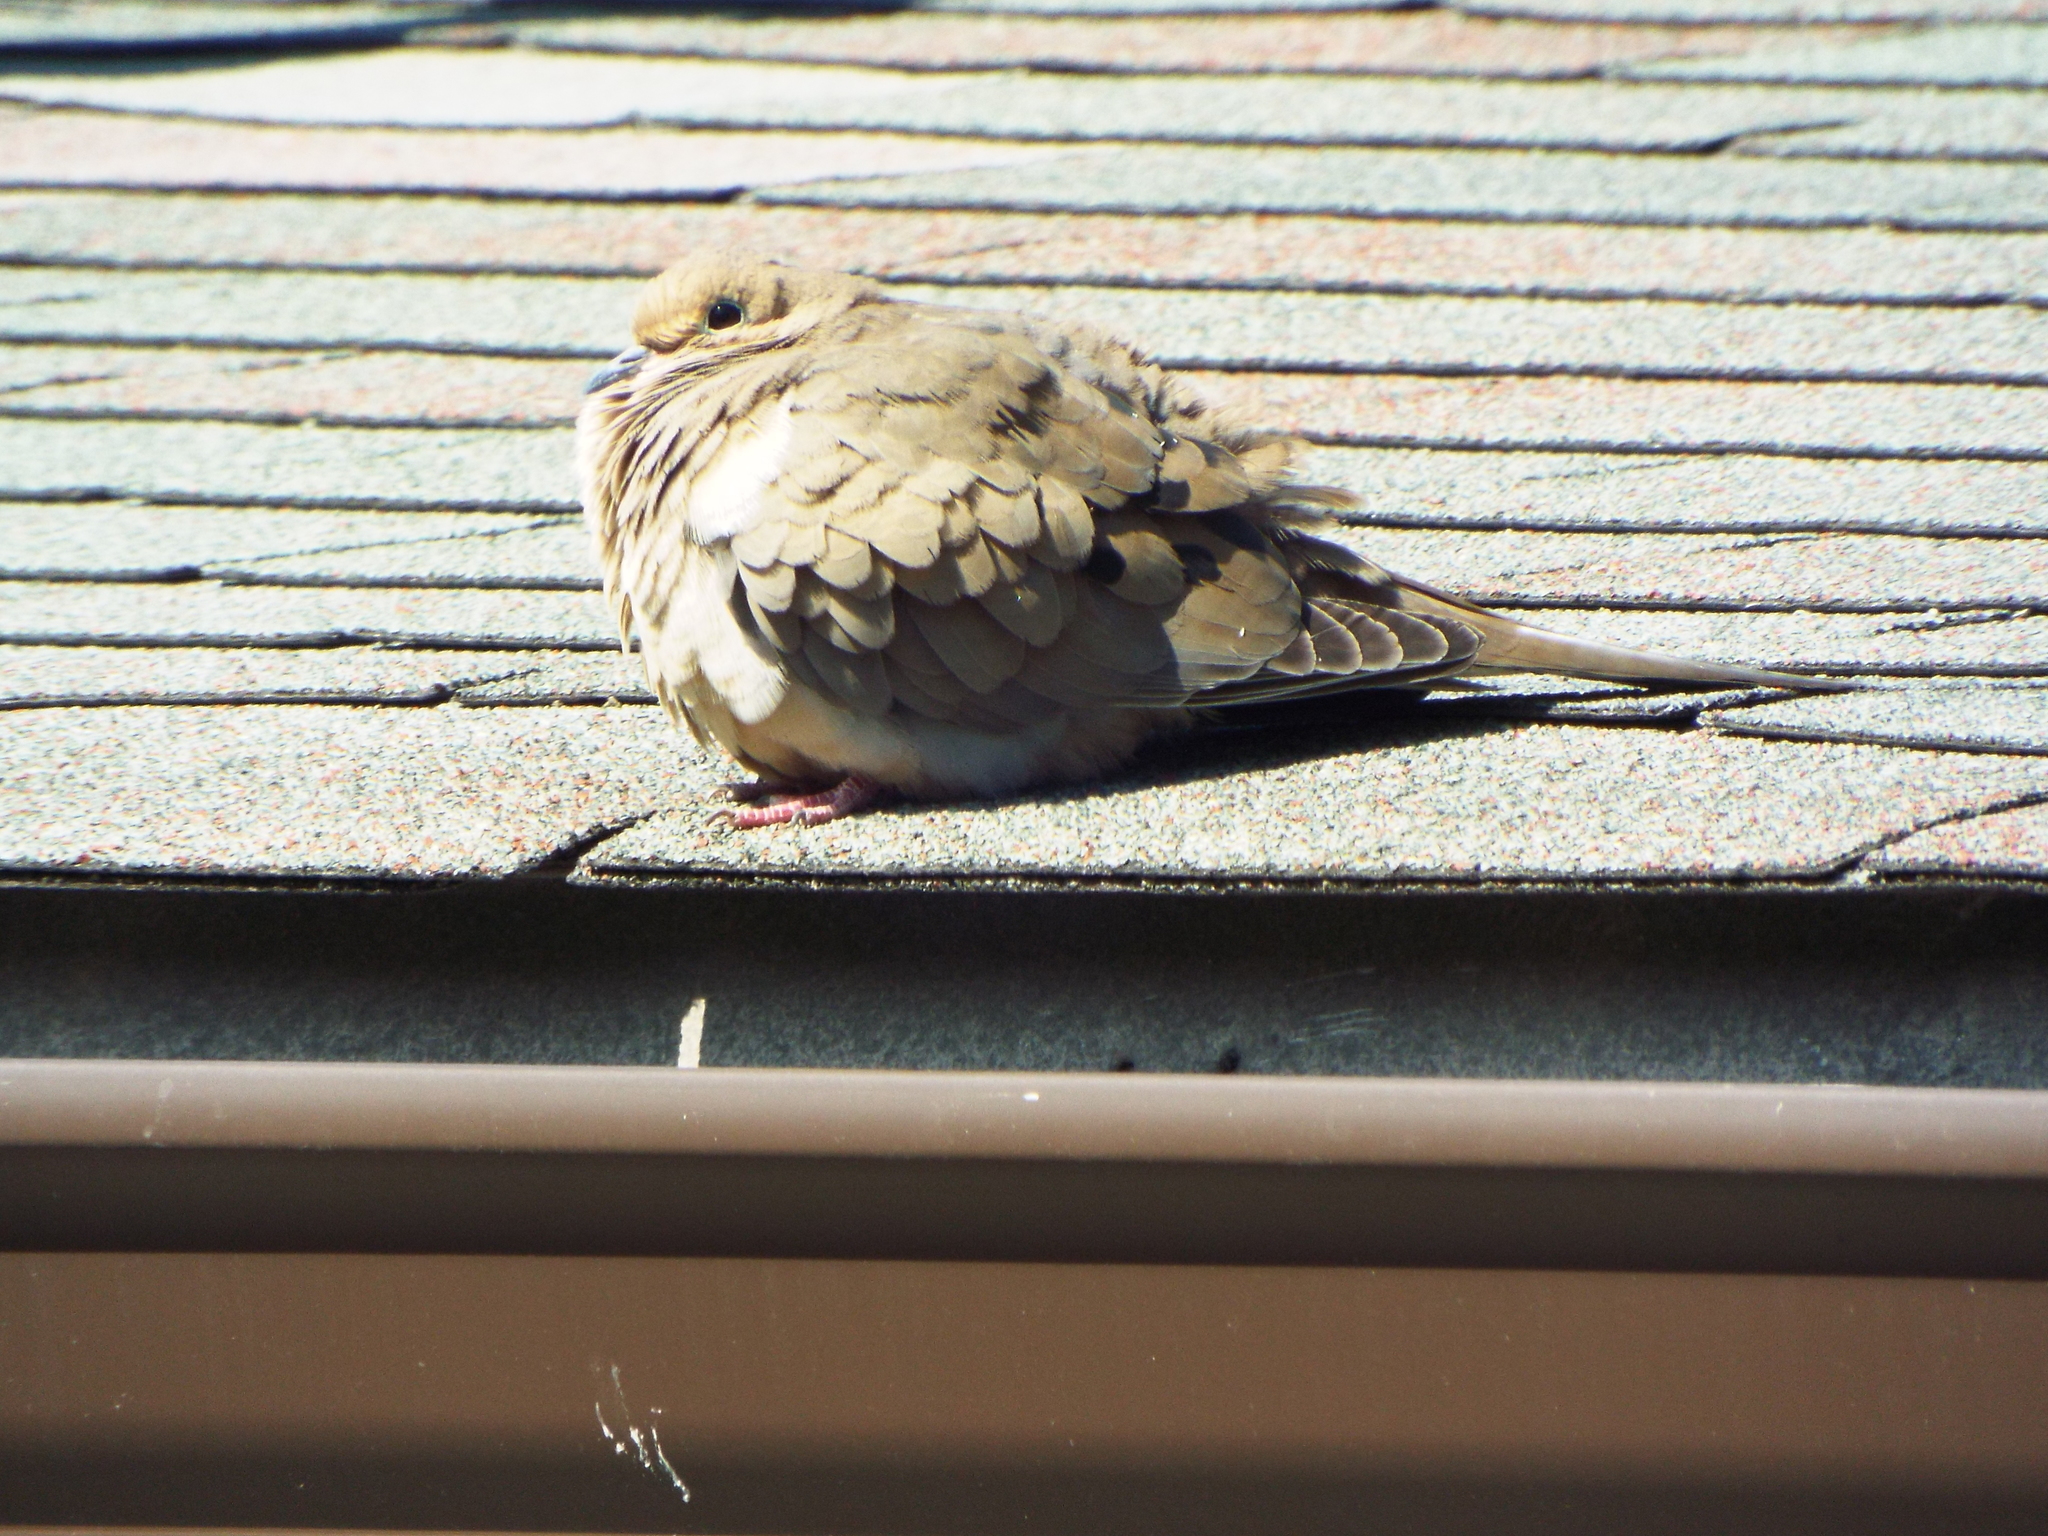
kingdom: Animalia
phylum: Chordata
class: Aves
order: Columbiformes
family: Columbidae
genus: Zenaida
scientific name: Zenaida macroura
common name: Mourning dove
